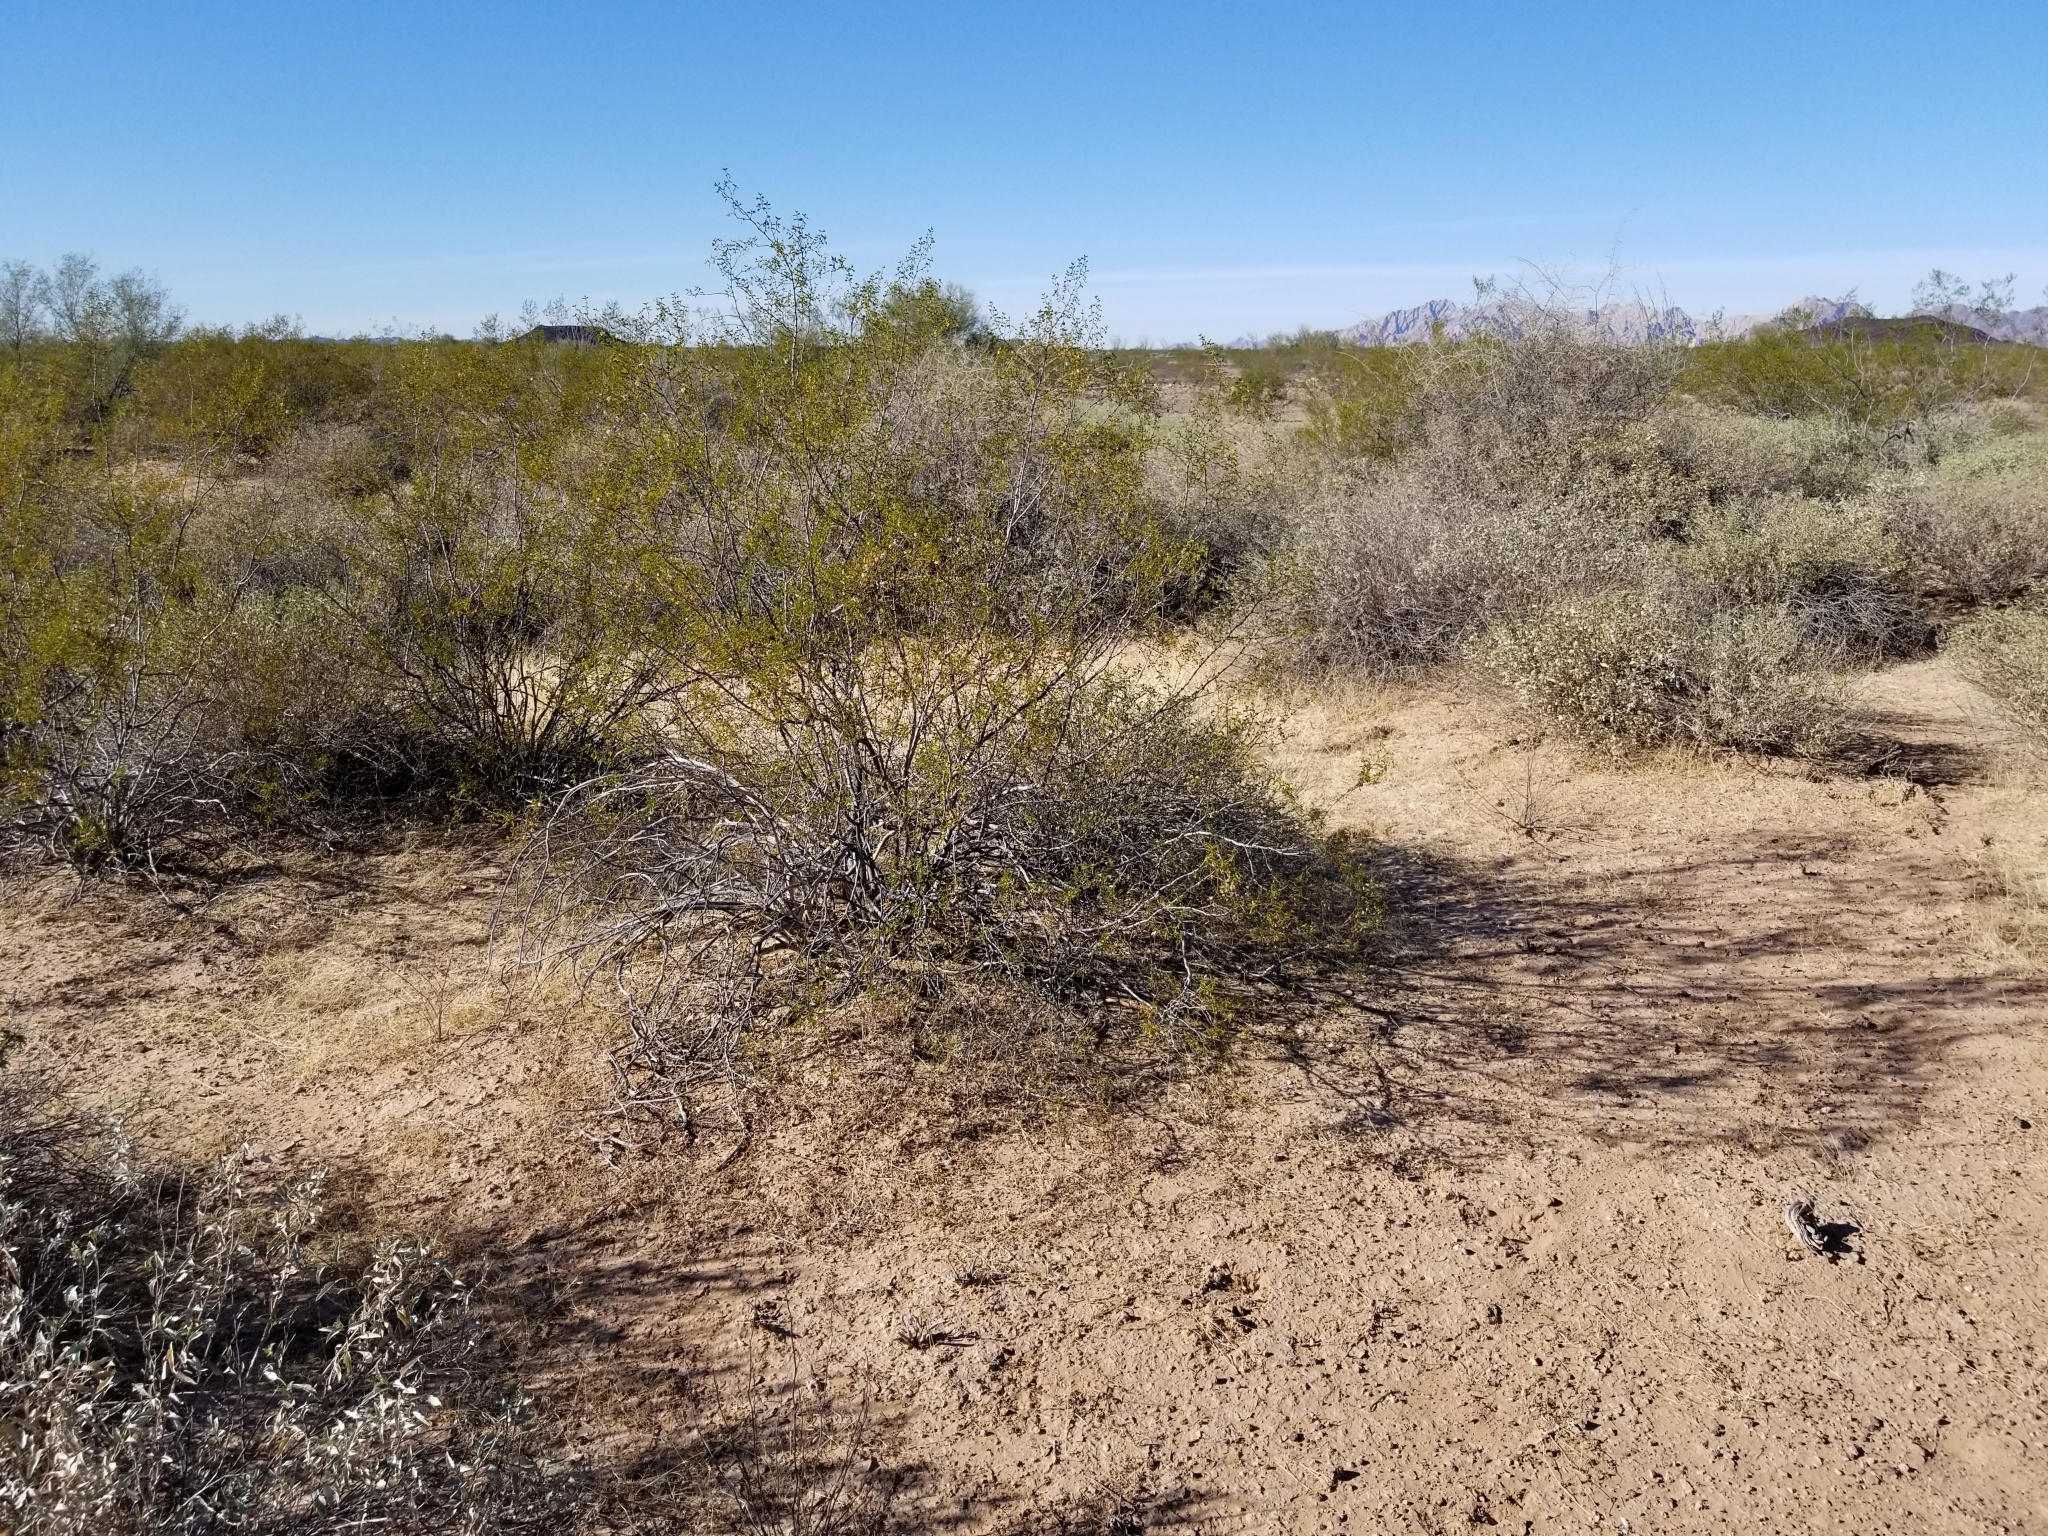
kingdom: Plantae
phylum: Tracheophyta
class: Magnoliopsida
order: Zygophyllales
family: Zygophyllaceae
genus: Larrea
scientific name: Larrea tridentata
